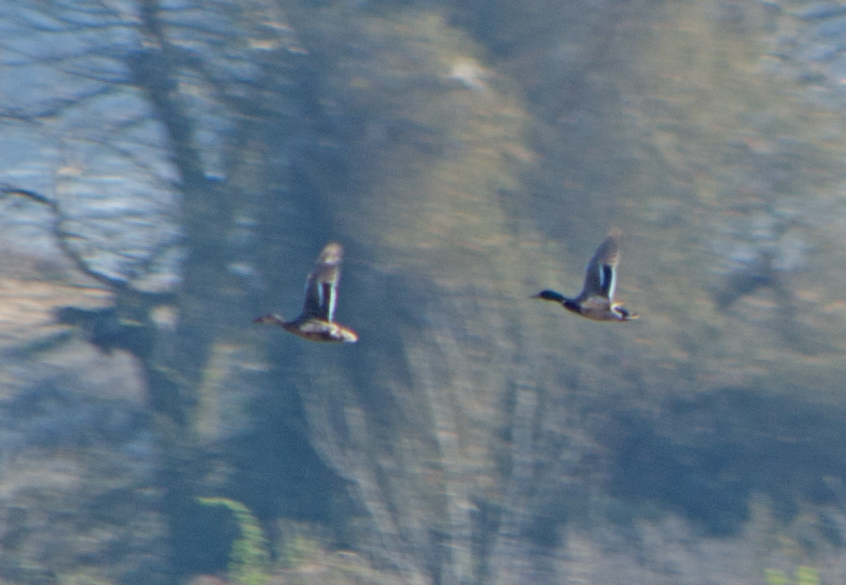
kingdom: Animalia
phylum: Chordata
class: Aves
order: Anseriformes
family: Anatidae
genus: Anas
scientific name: Anas platyrhynchos
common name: Mallard
